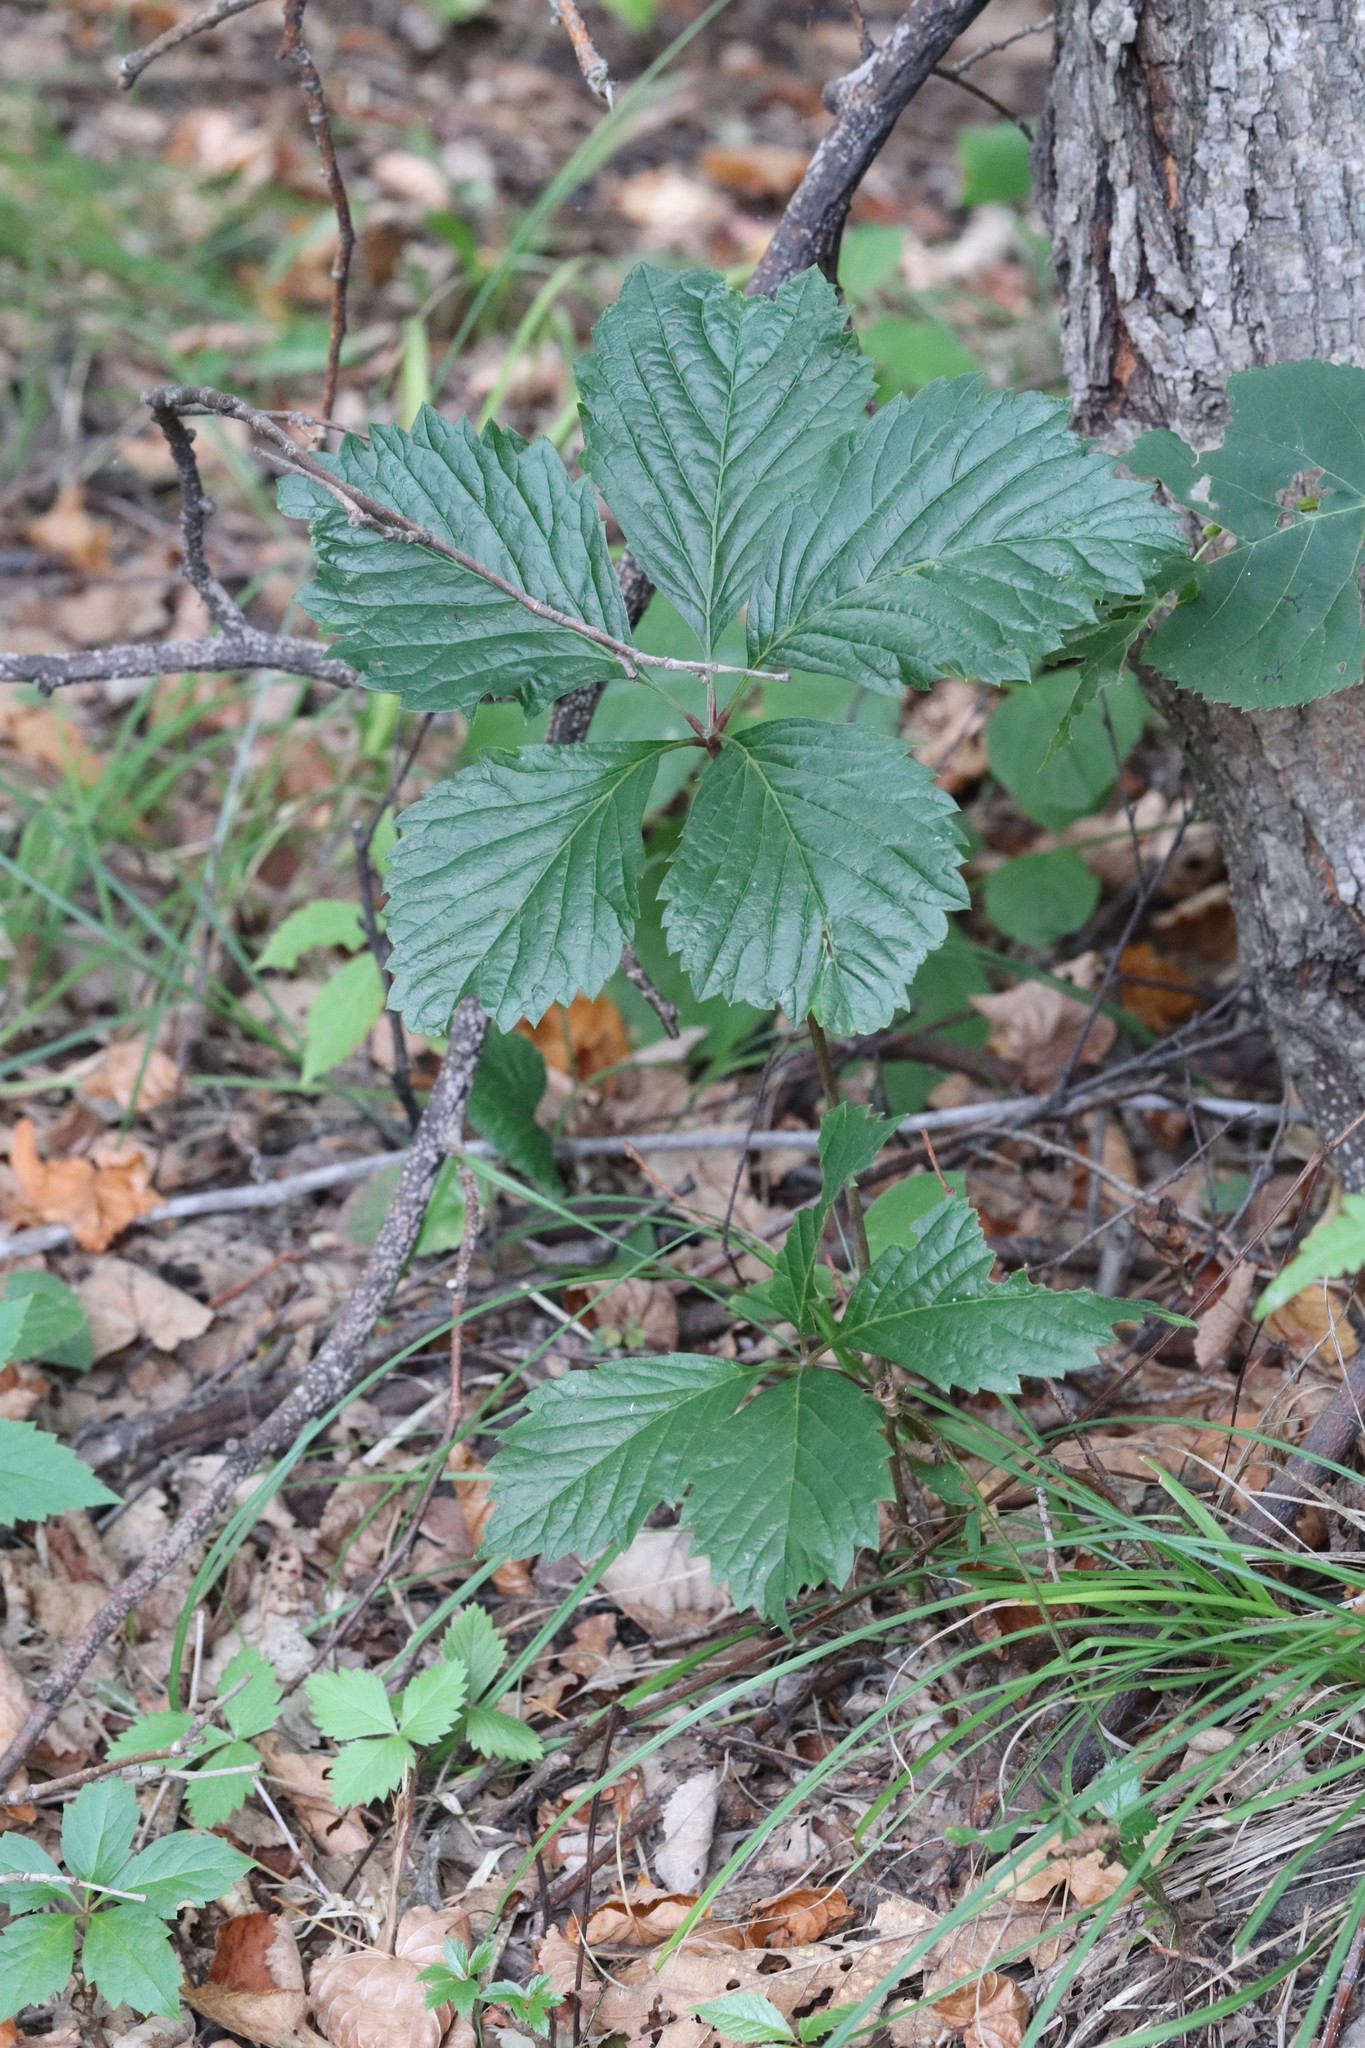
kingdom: Plantae
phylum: Tracheophyta
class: Magnoliopsida
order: Vitales
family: Vitaceae
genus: Parthenocissus
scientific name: Parthenocissus inserta
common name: False virginia-creeper
